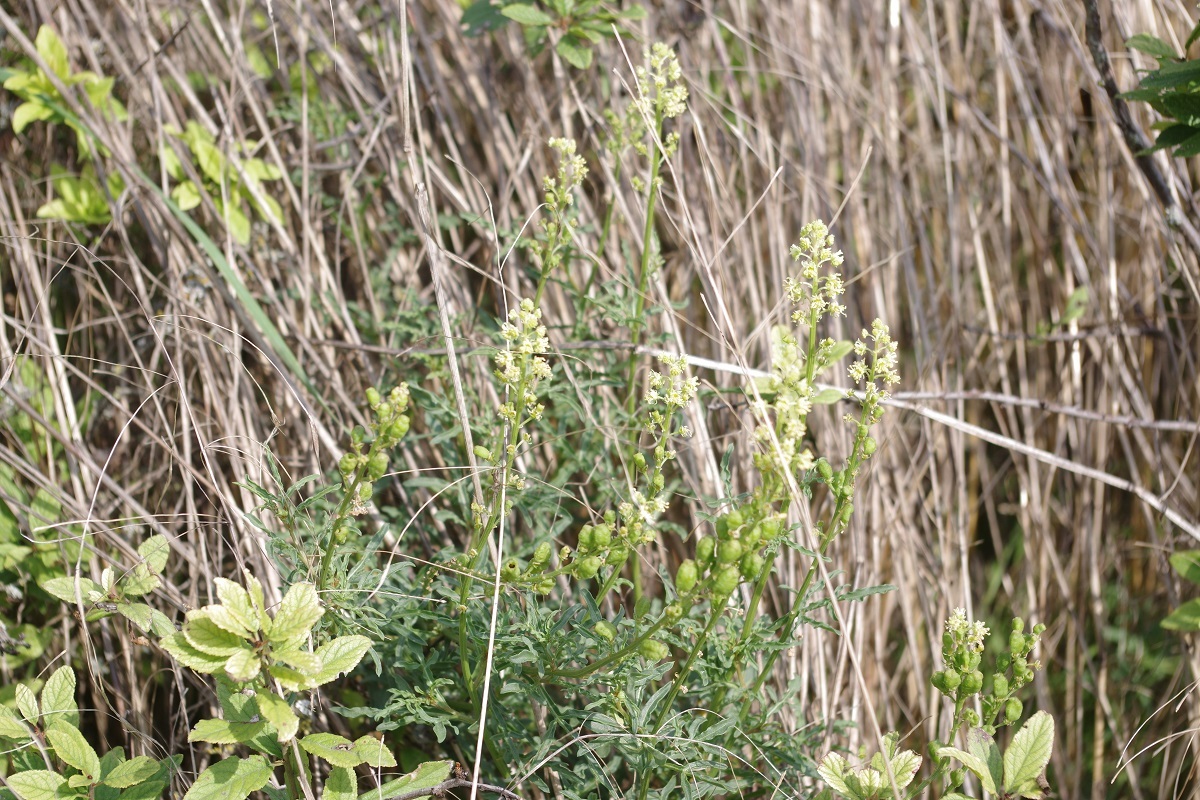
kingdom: Plantae
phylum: Tracheophyta
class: Magnoliopsida
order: Brassicales
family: Resedaceae
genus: Reseda
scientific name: Reseda lutea
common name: Wild mignonette
